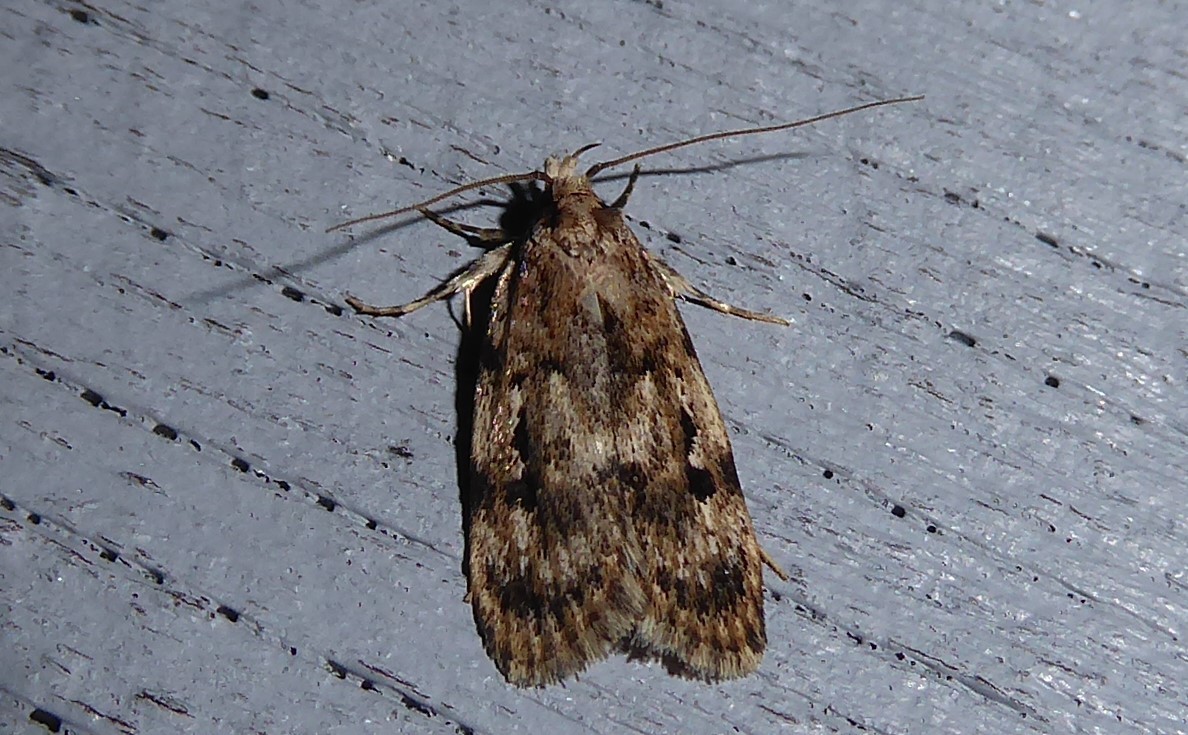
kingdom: Animalia
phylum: Arthropoda
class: Insecta
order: Lepidoptera
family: Oecophoridae
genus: Barea
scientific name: Barea exarcha
